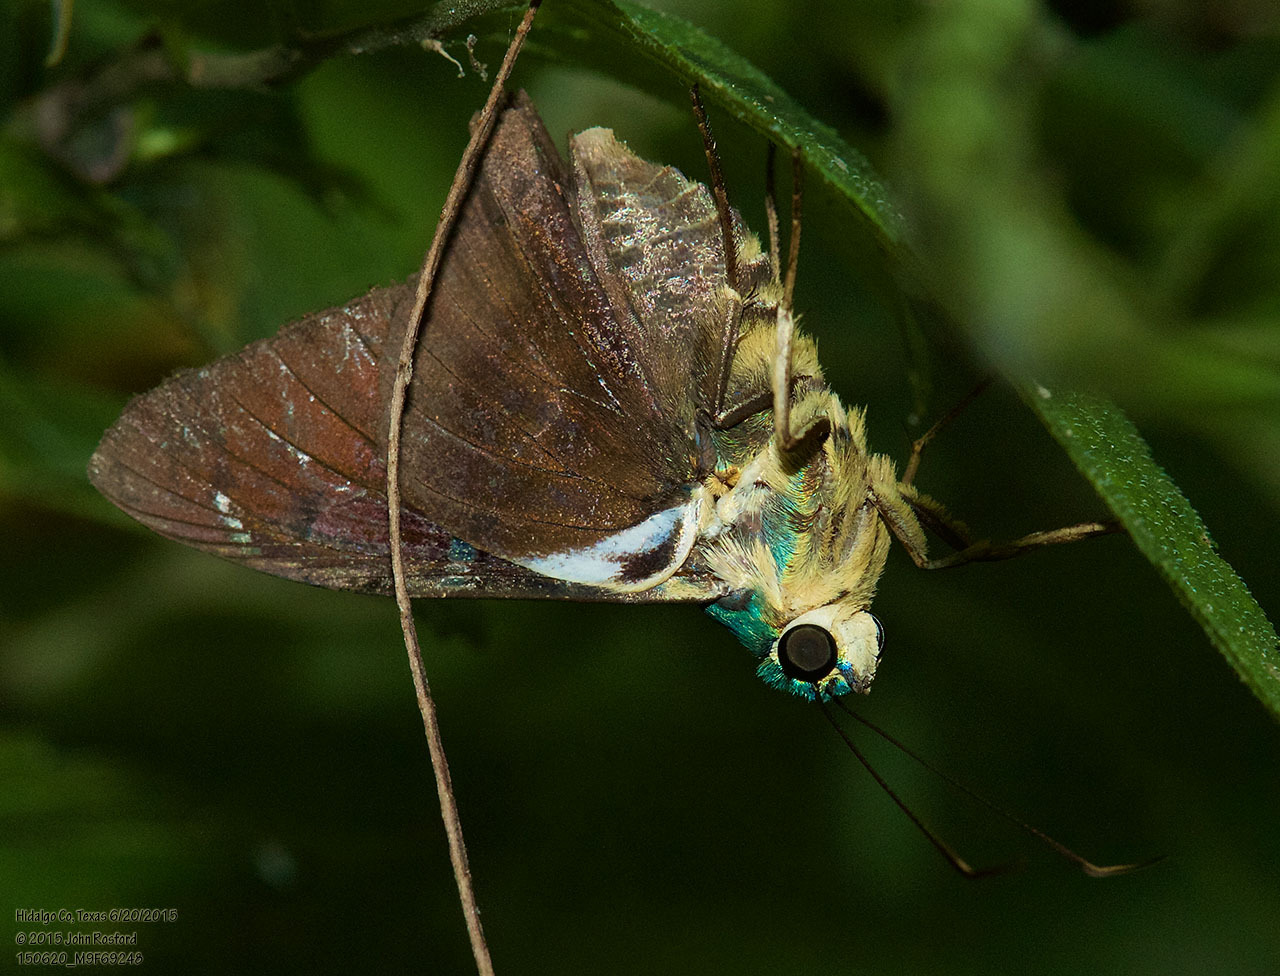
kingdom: Animalia
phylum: Arthropoda
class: Insecta
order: Lepidoptera
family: Hesperiidae
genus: Astraptes
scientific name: Astraptes fulgerator
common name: Two-barred flasher
